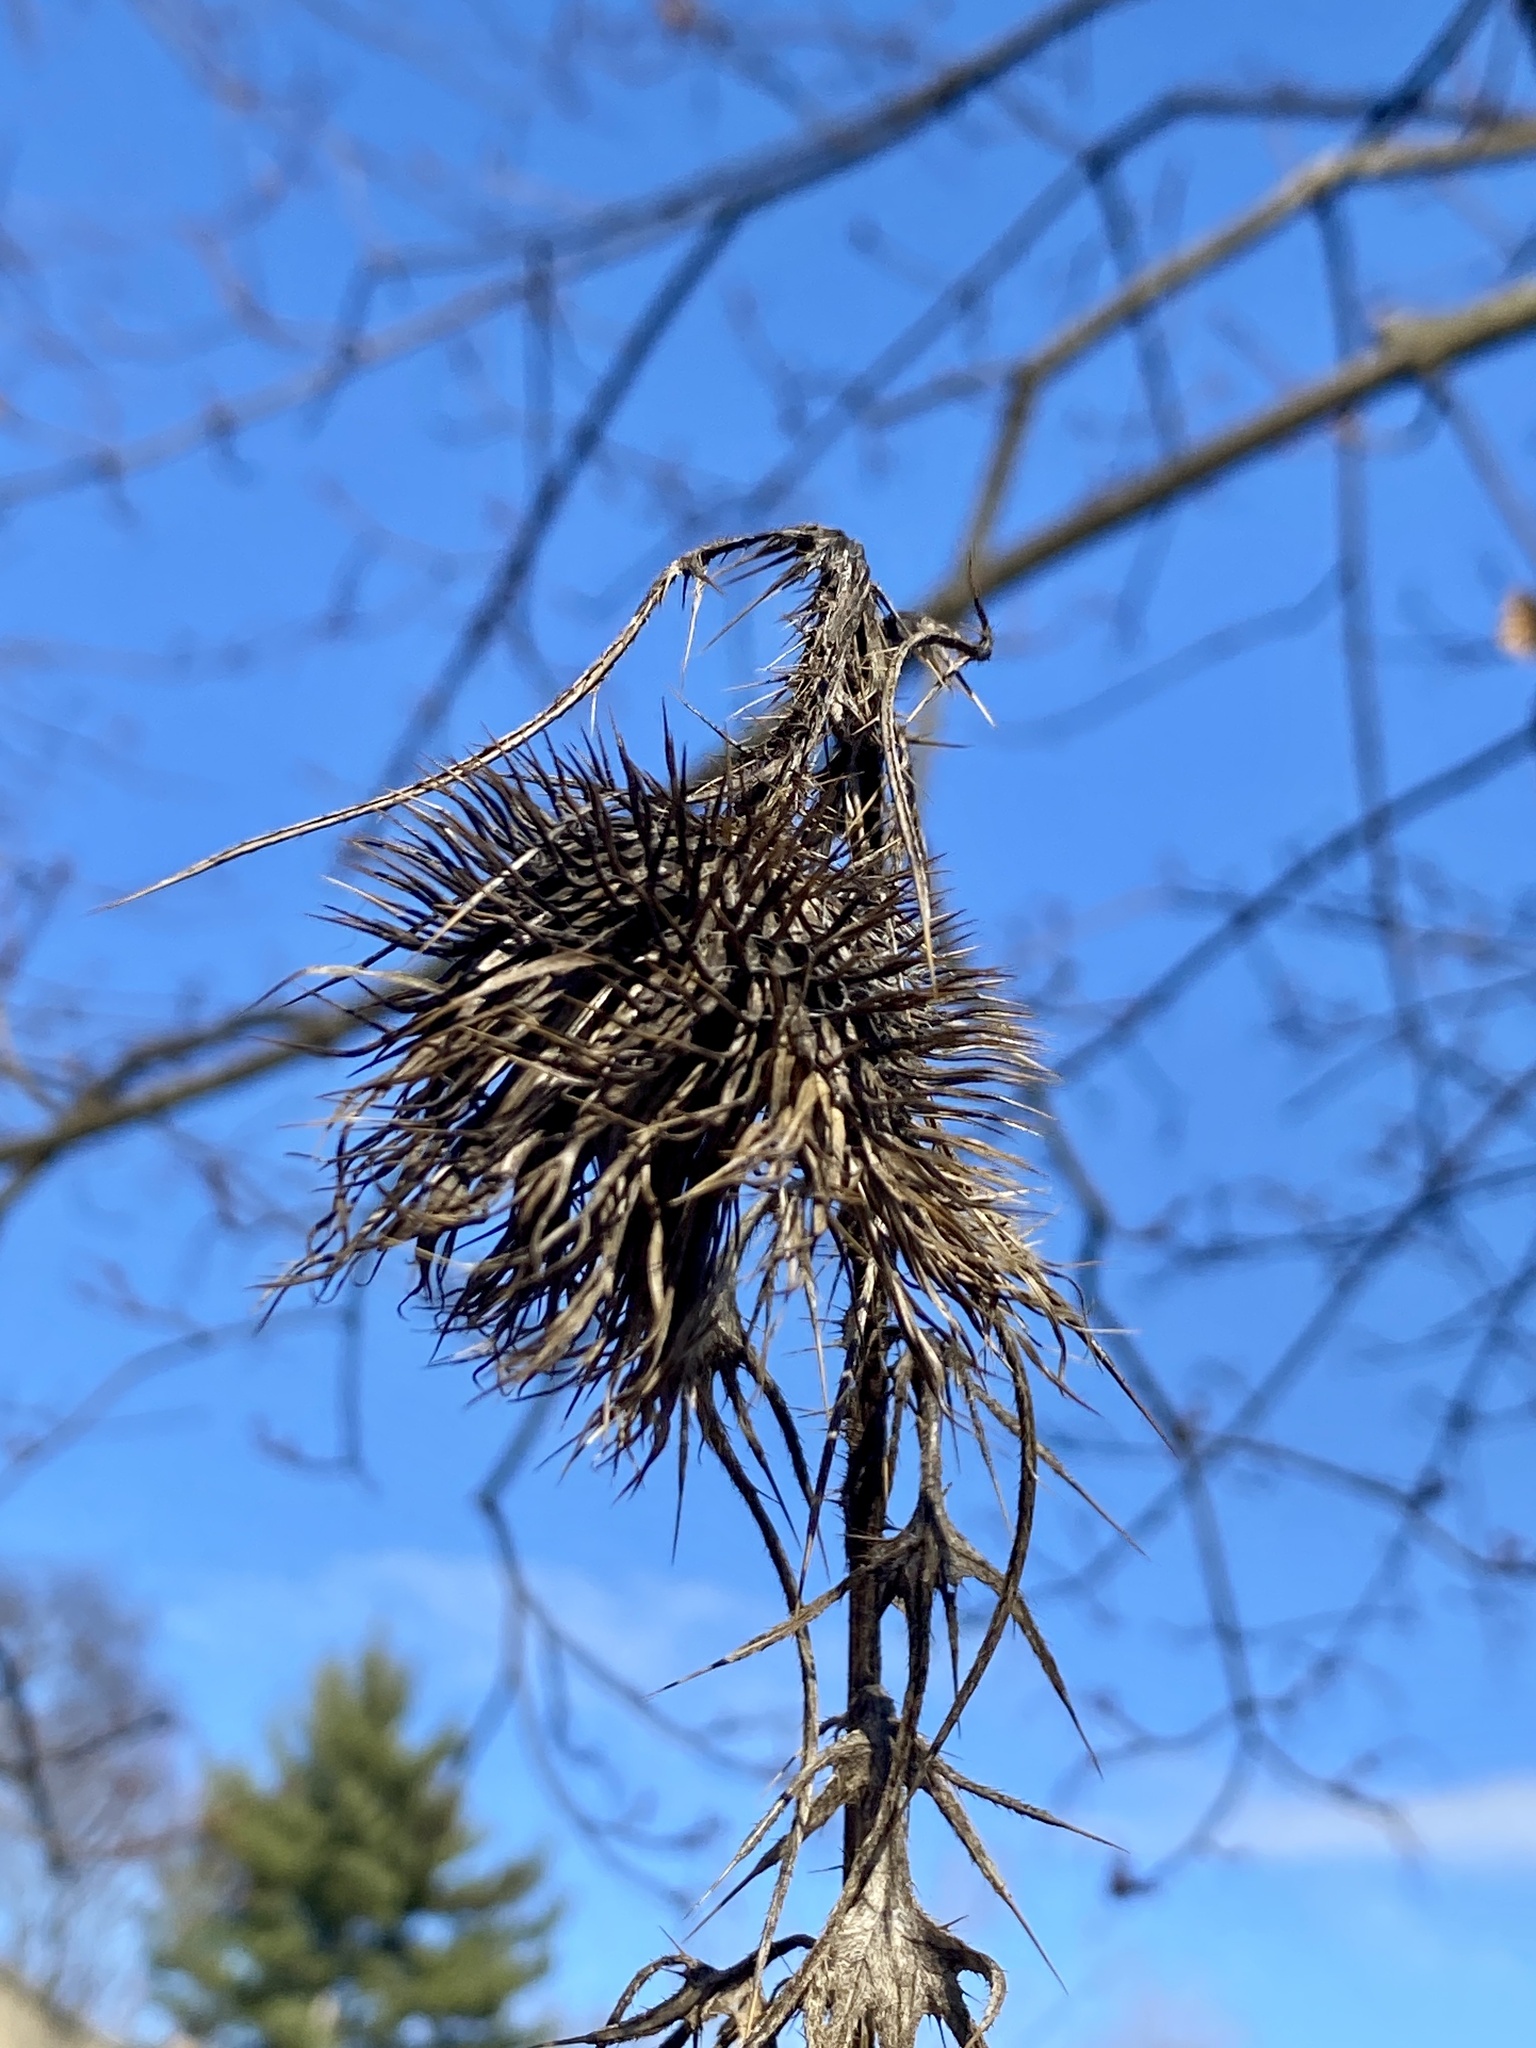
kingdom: Plantae
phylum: Tracheophyta
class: Magnoliopsida
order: Asterales
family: Asteraceae
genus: Cirsium
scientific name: Cirsium vulgare
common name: Bull thistle
